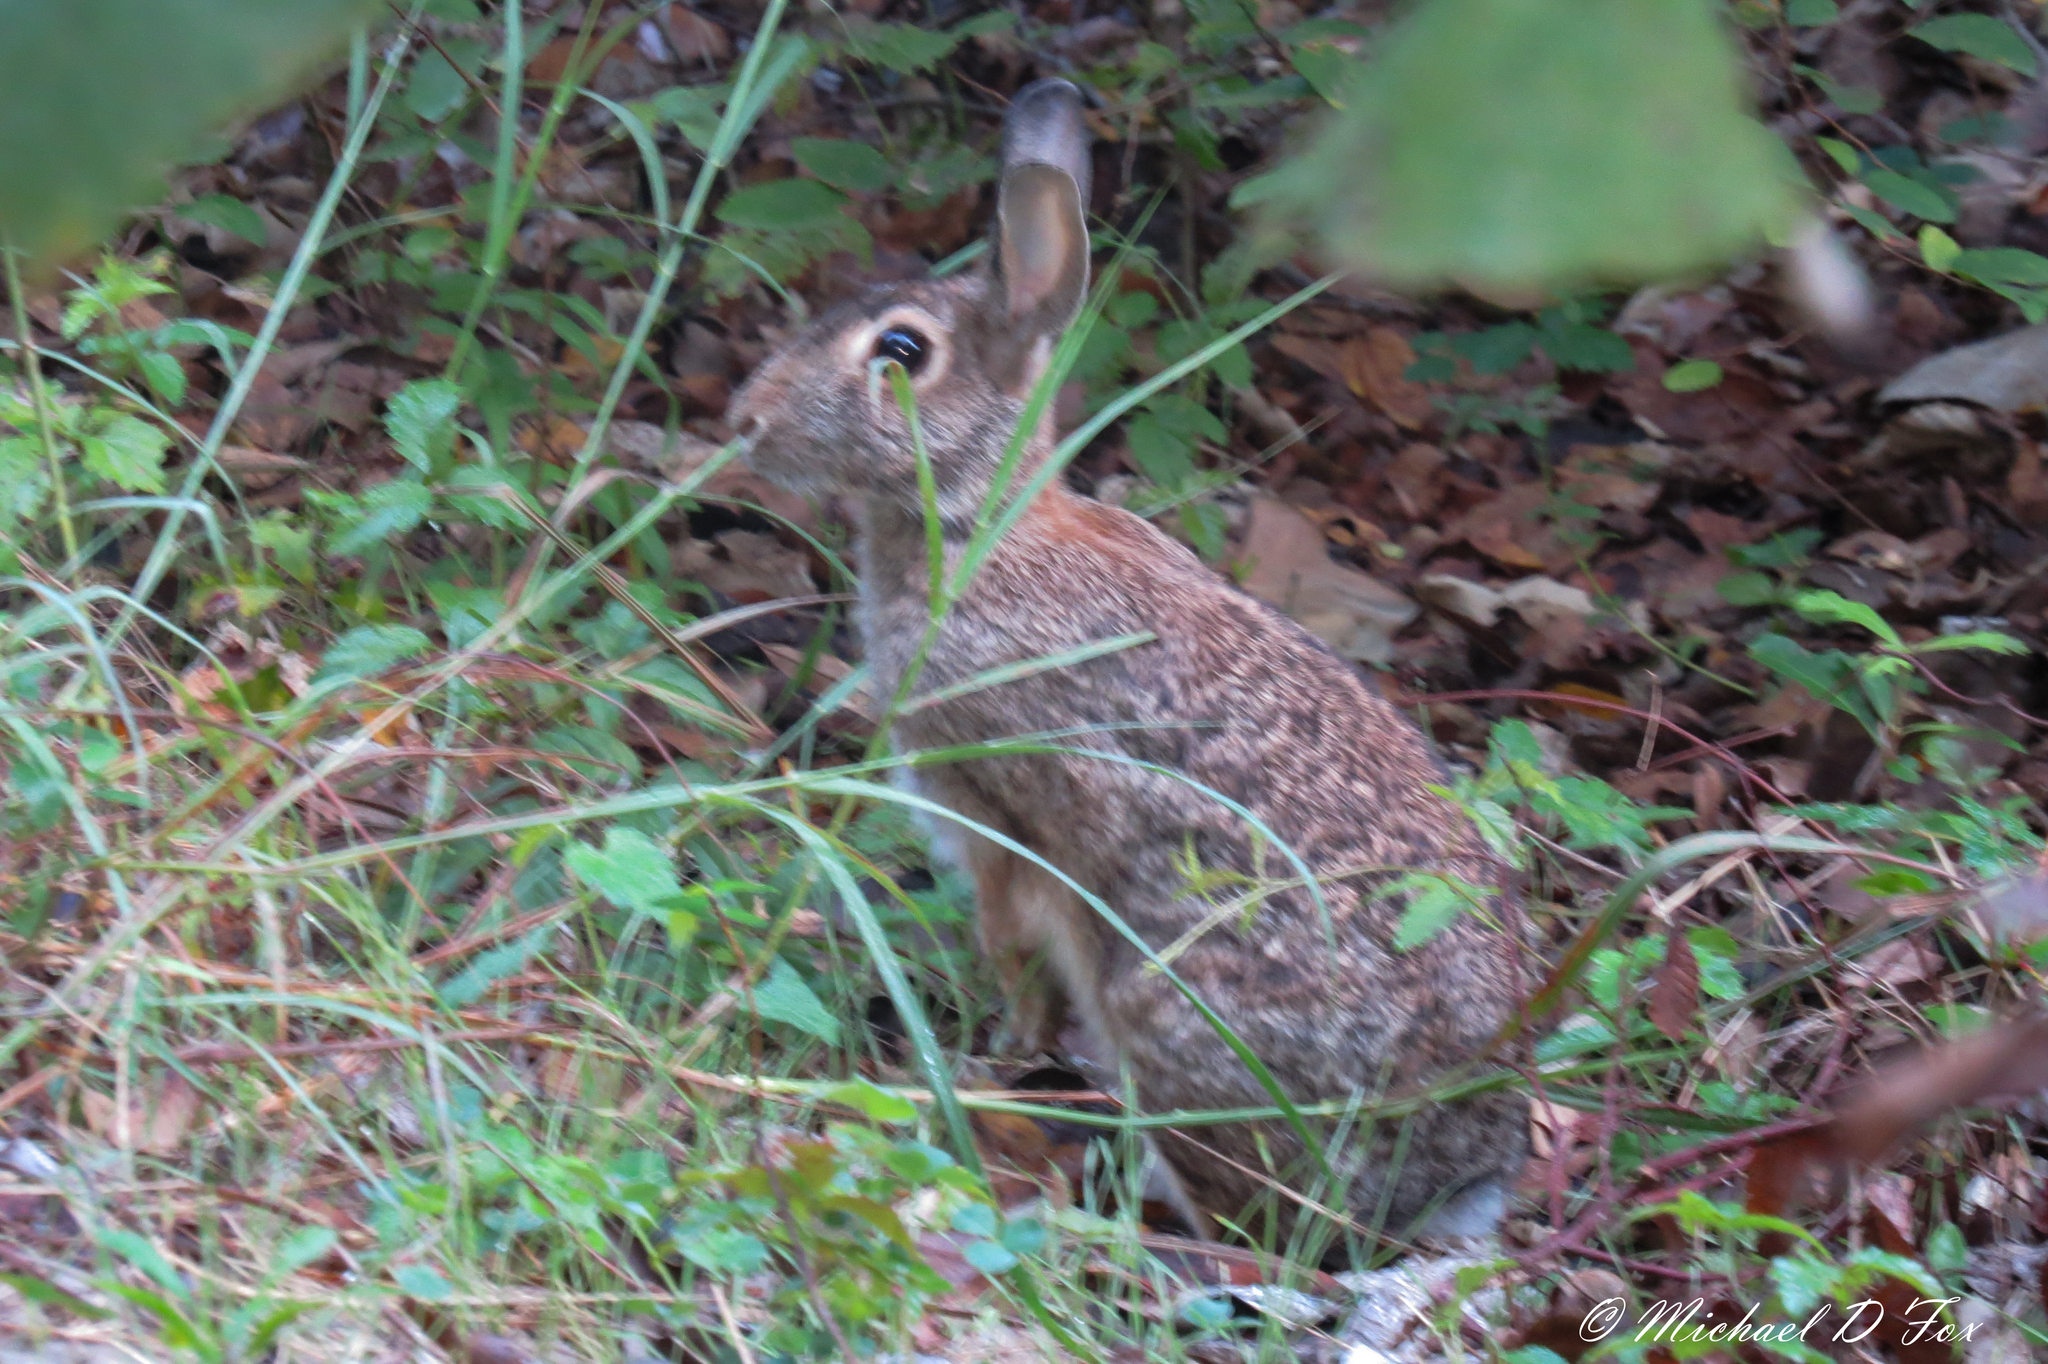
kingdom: Animalia
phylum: Chordata
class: Mammalia
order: Lagomorpha
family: Leporidae
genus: Sylvilagus
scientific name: Sylvilagus floridanus
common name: Eastern cottontail
